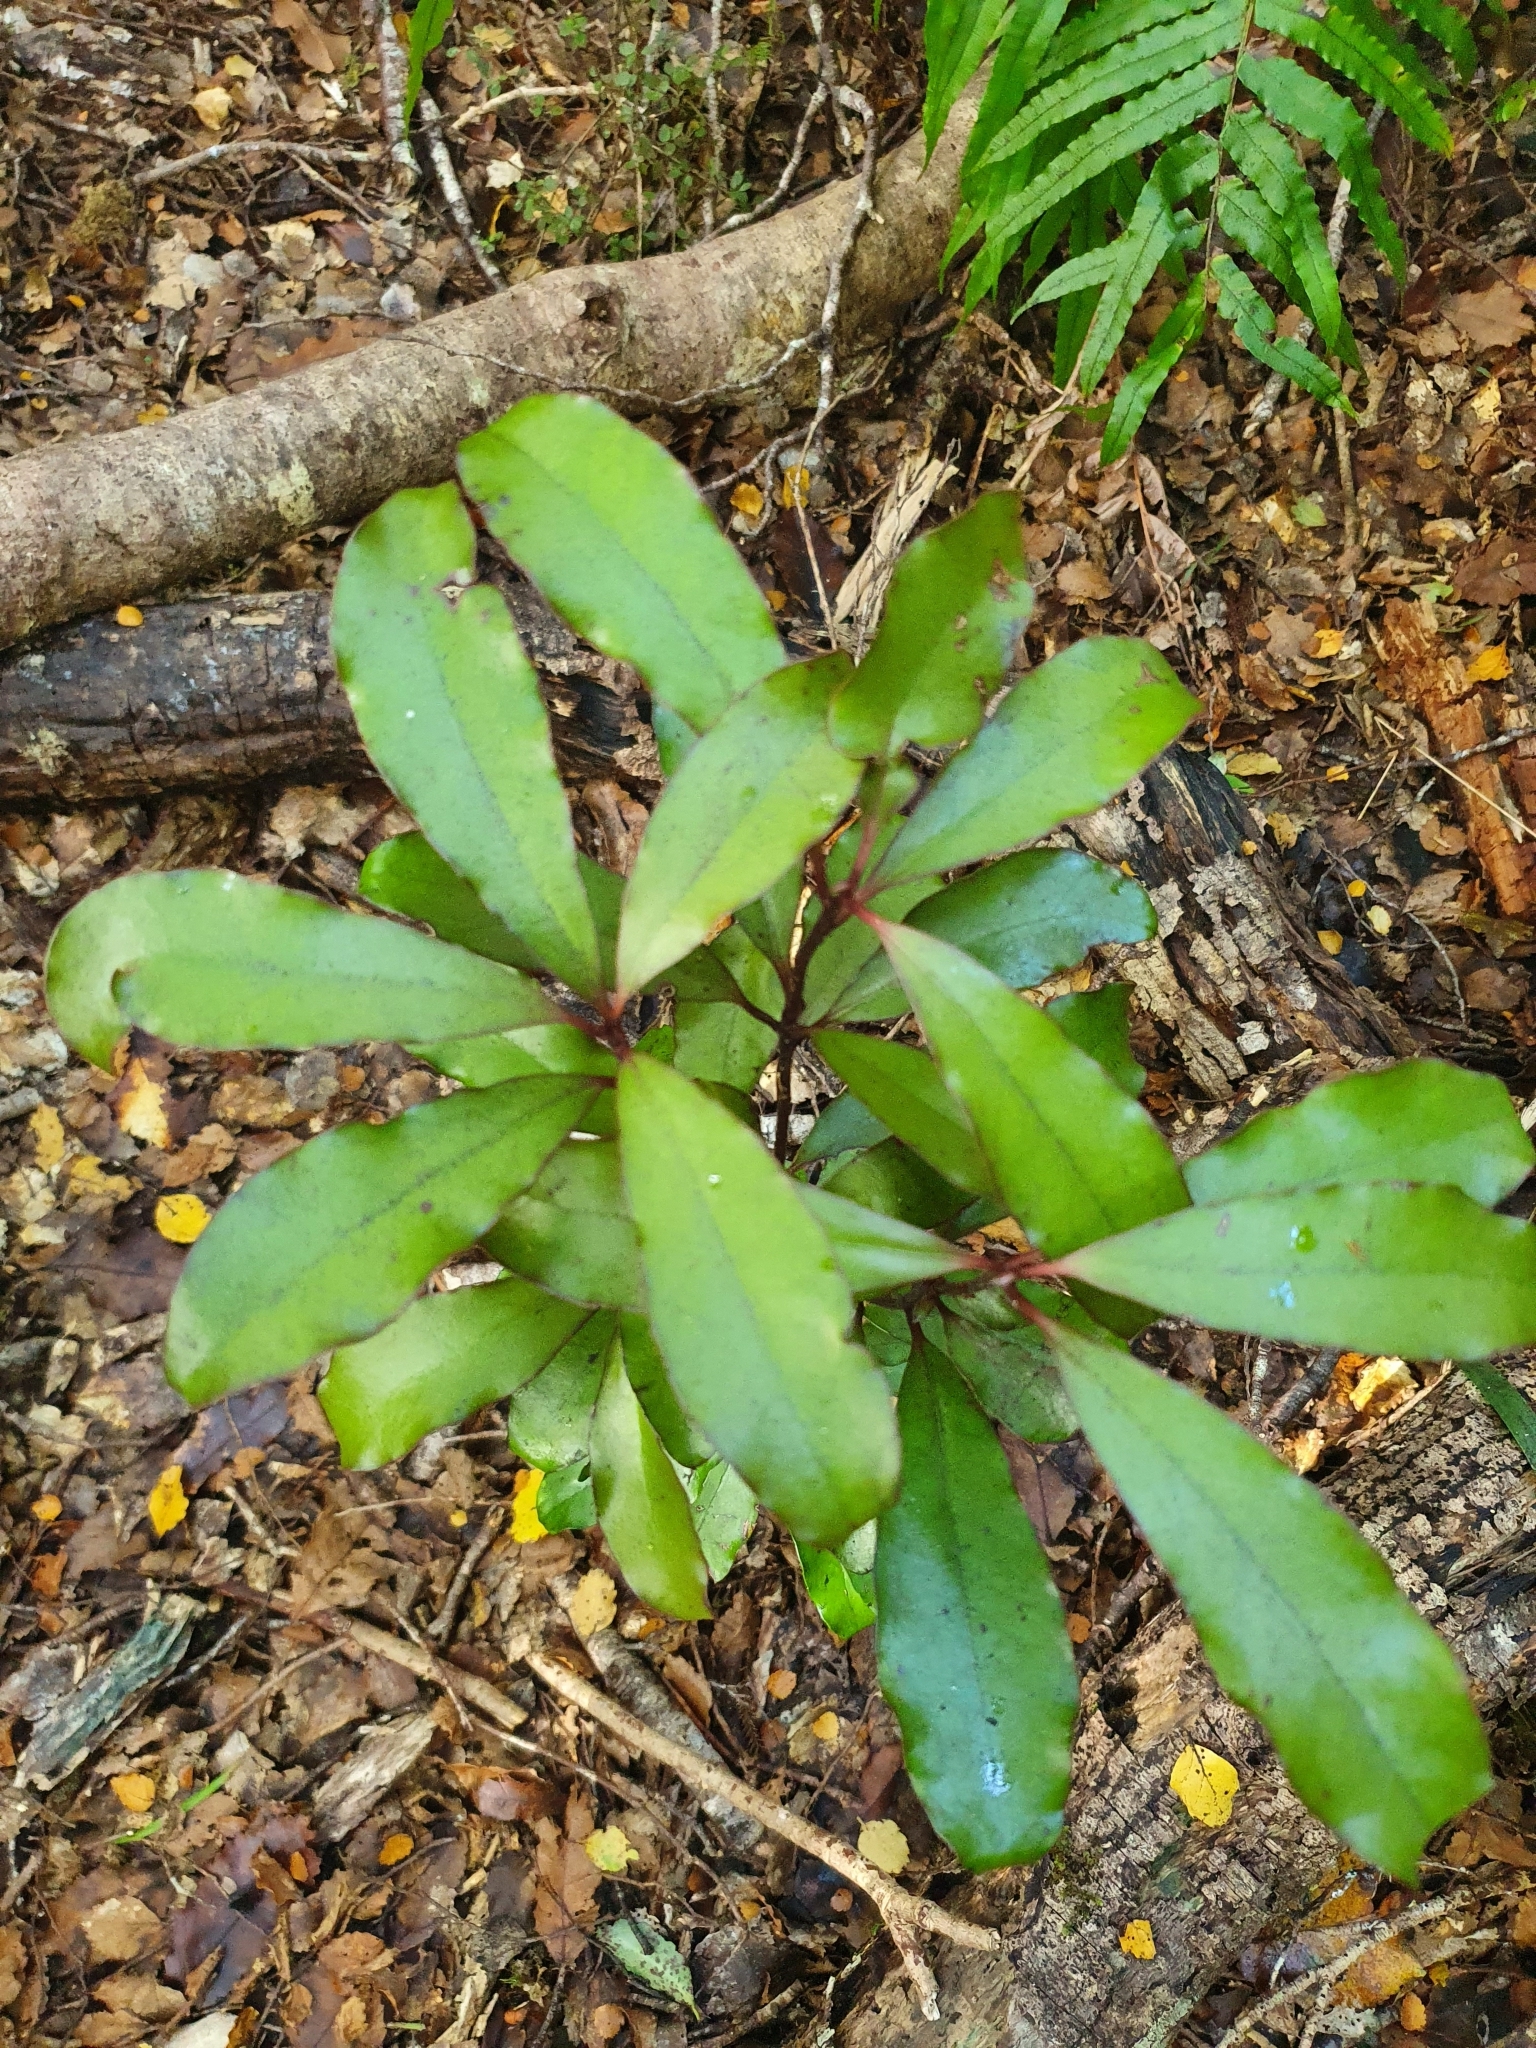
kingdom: Plantae
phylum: Tracheophyta
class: Magnoliopsida
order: Asterales
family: Alseuosmiaceae
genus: Alseuosmia
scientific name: Alseuosmia pusilla
